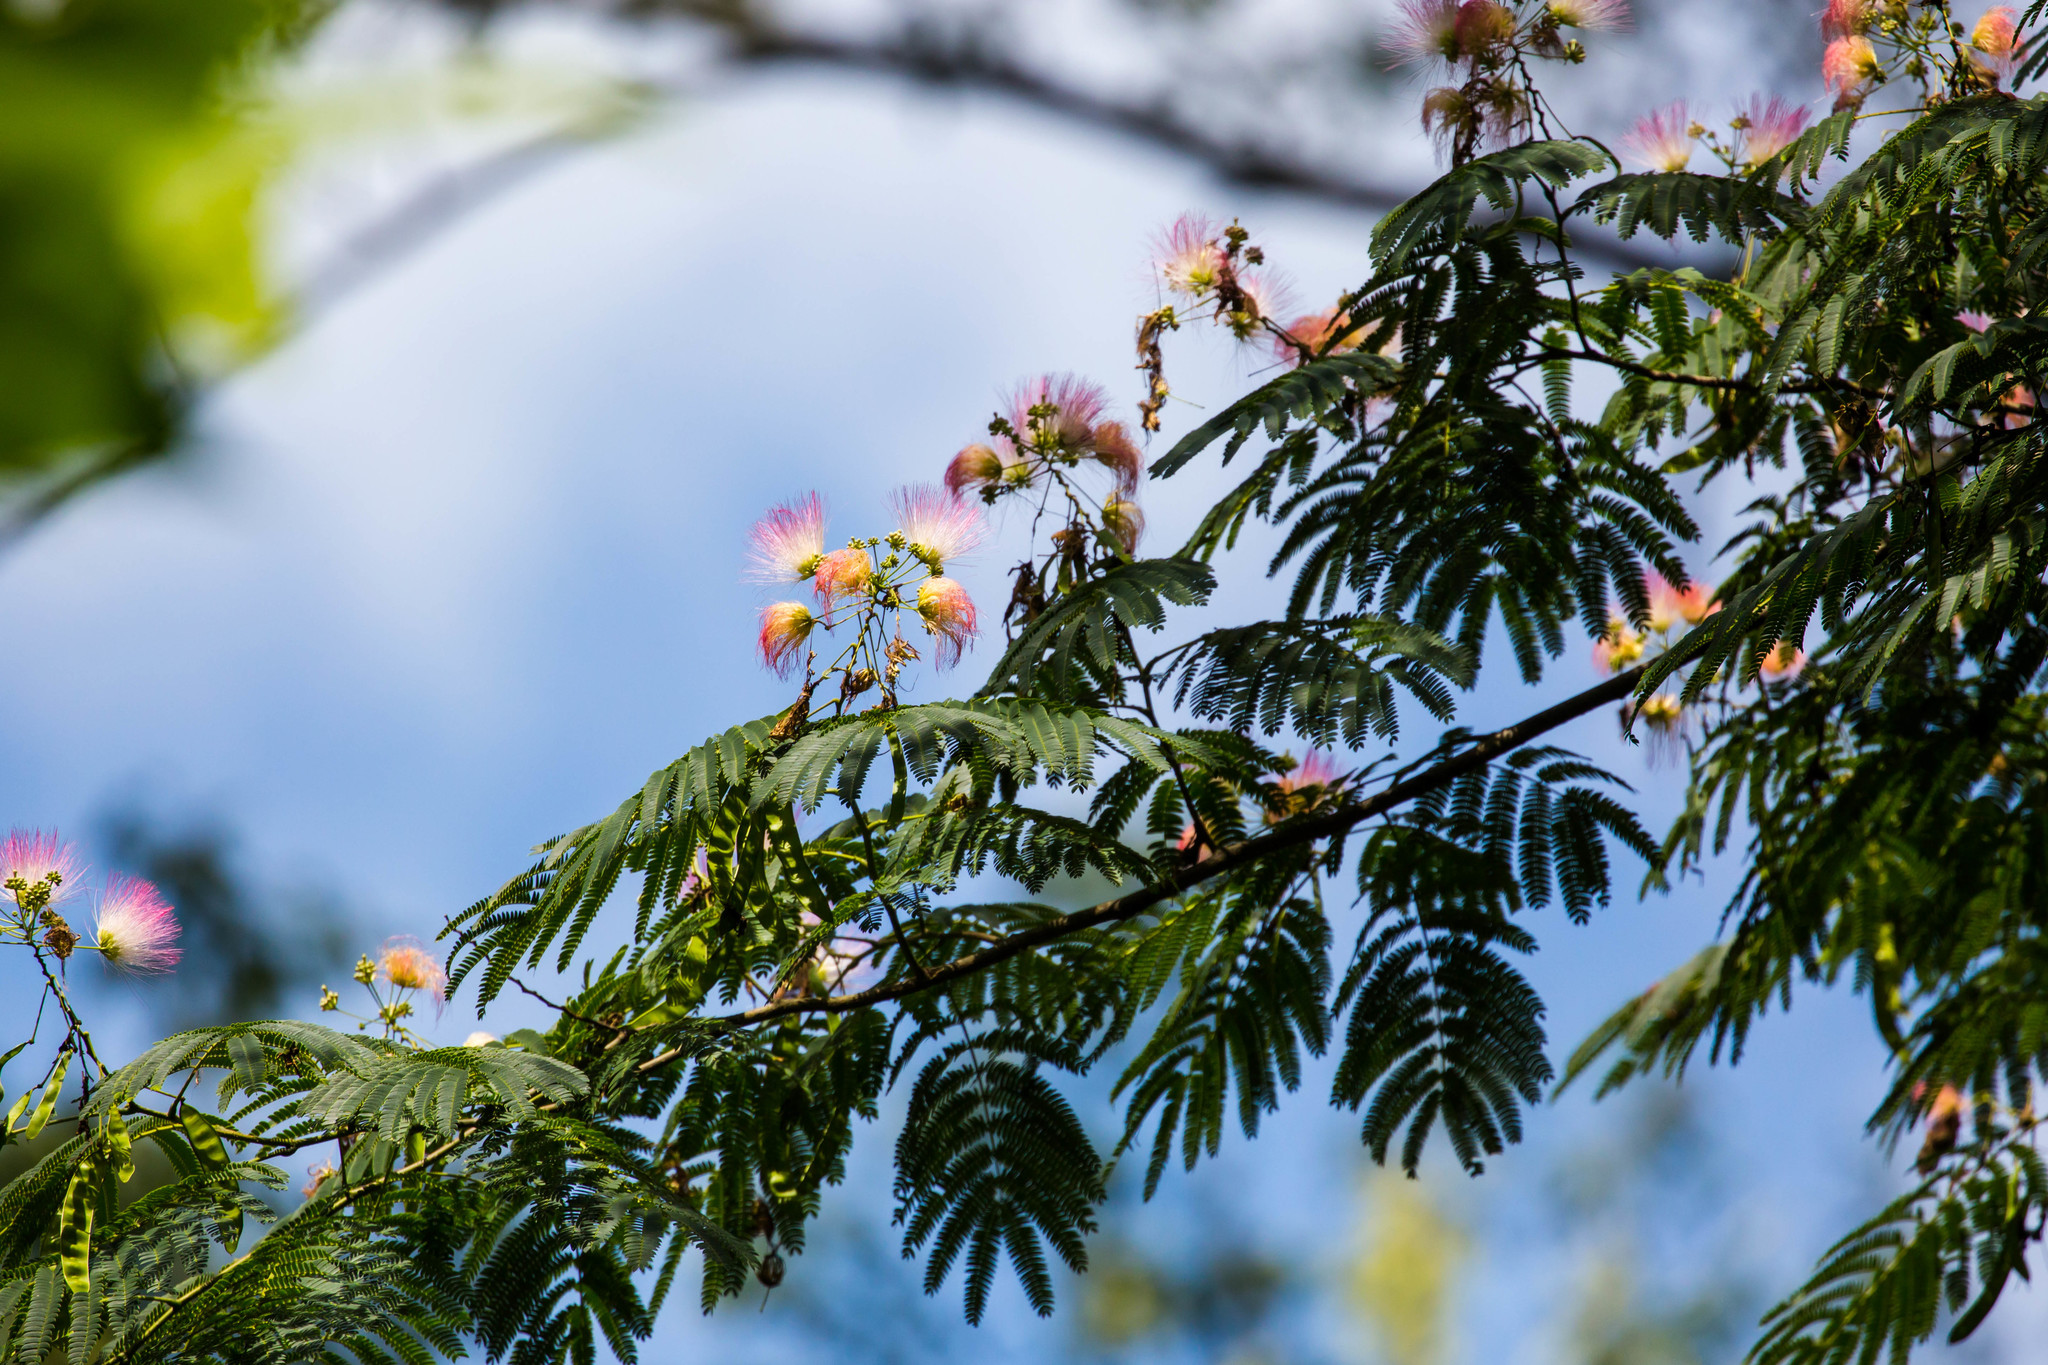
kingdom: Plantae
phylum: Tracheophyta
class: Magnoliopsida
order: Fabales
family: Fabaceae
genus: Albizia
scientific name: Albizia julibrissin
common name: Silktree
